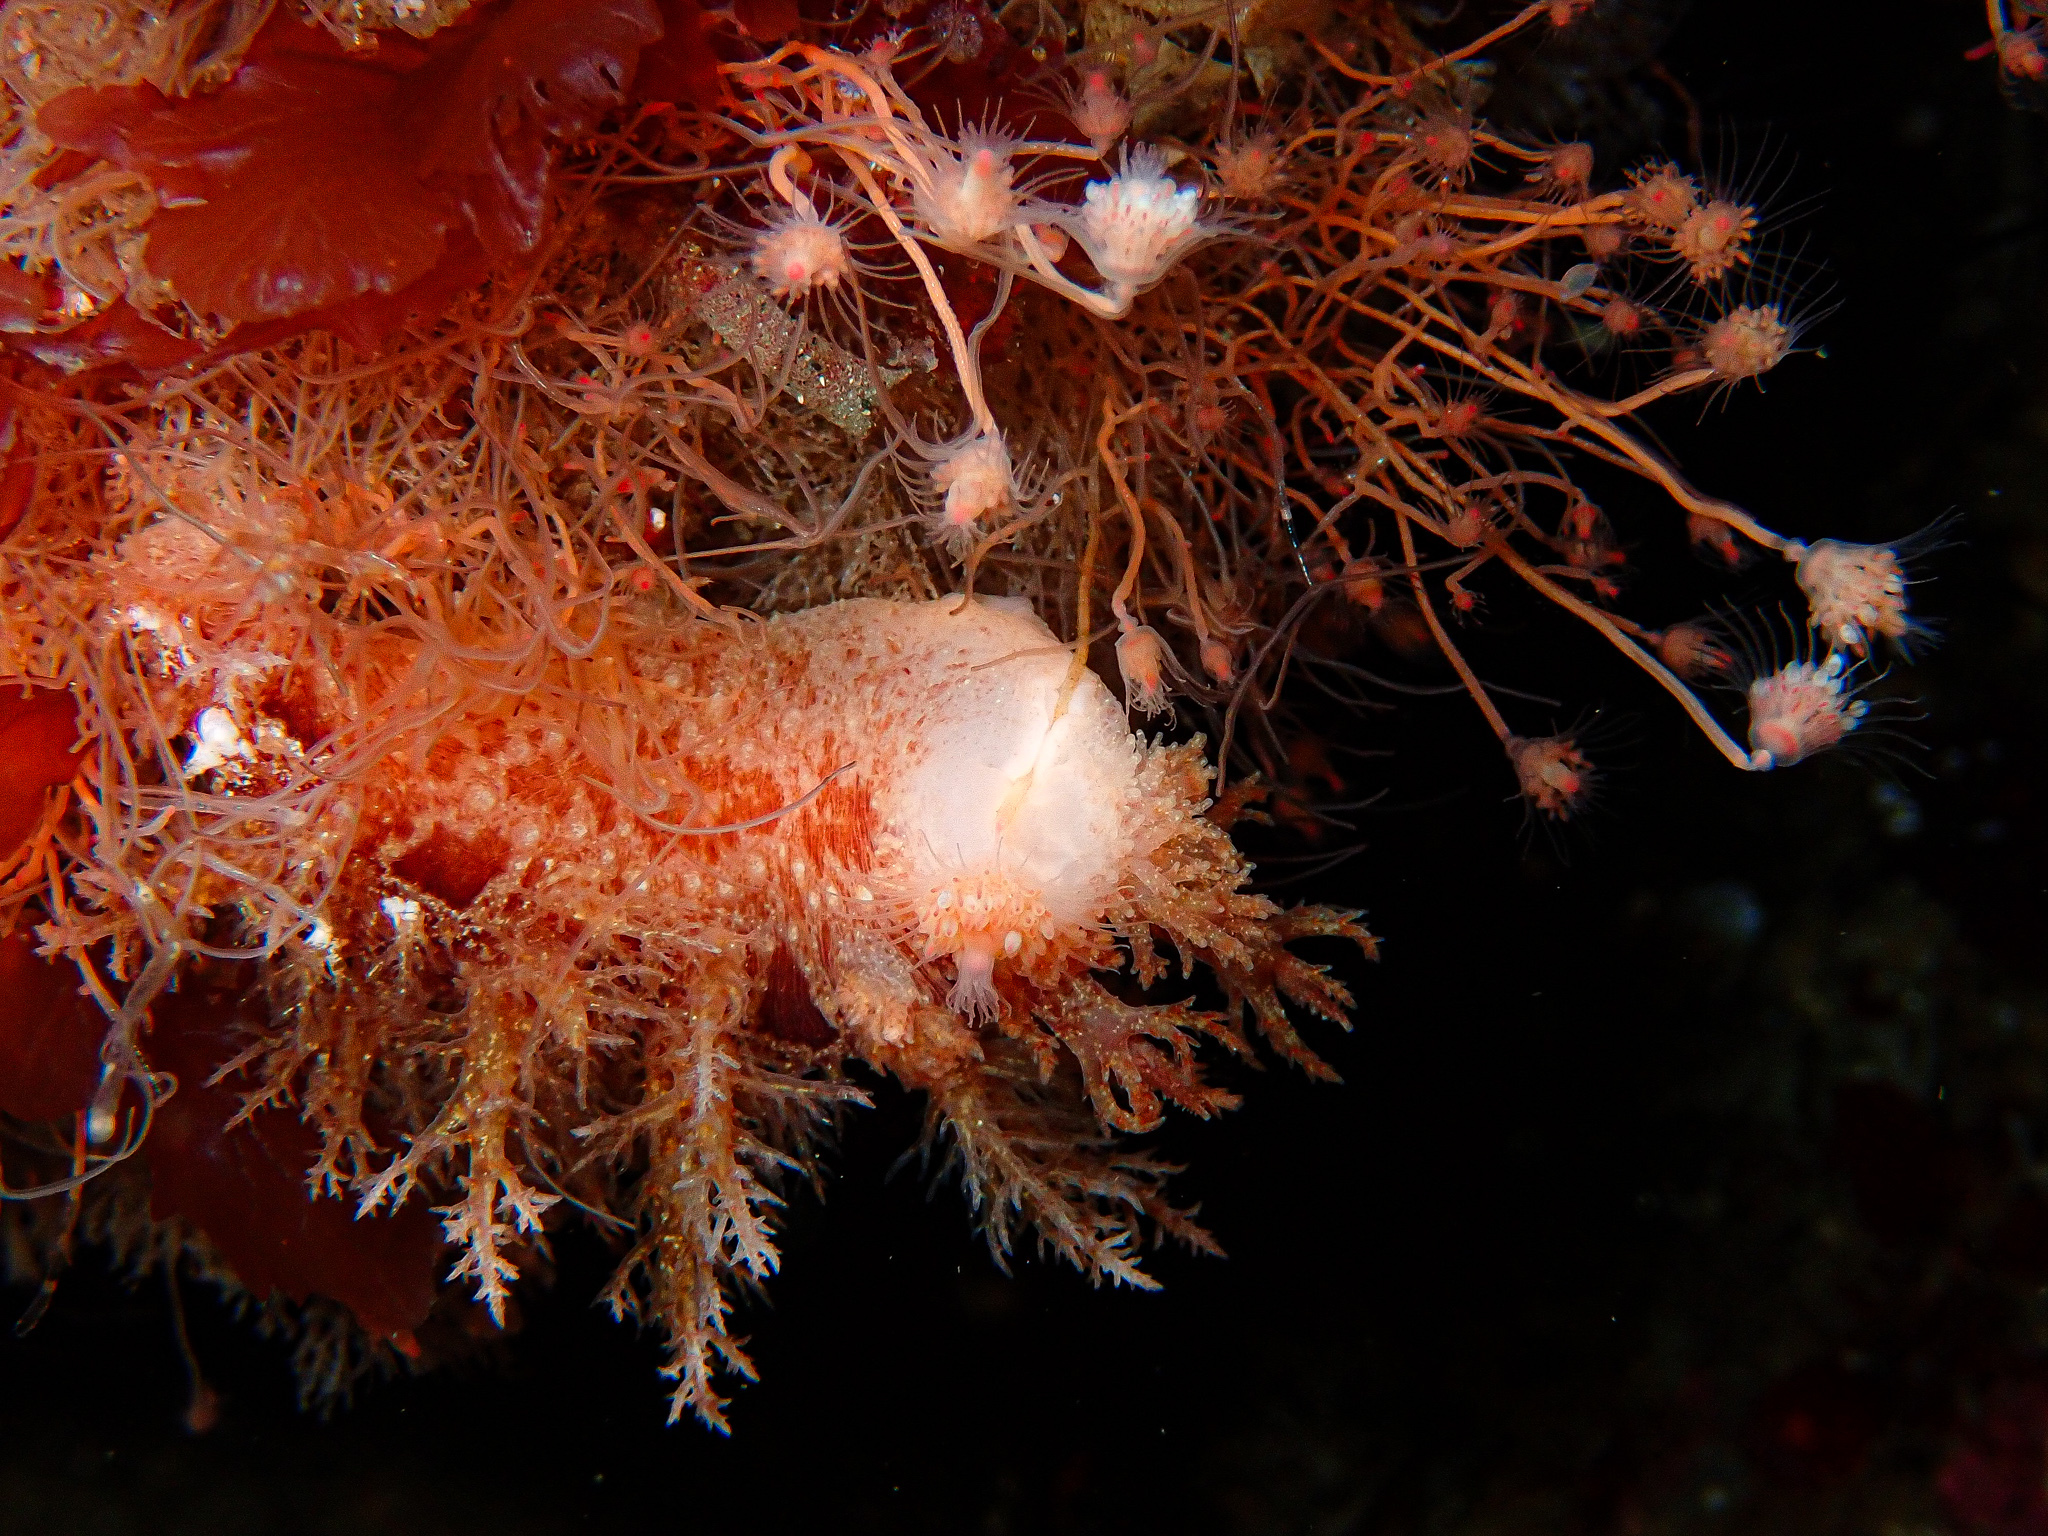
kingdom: Animalia
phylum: Mollusca
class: Gastropoda
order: Nudibranchia
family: Dendronotidae
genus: Dendronotus
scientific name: Dendronotus frondosus
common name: Bushy-backed nudibranch
